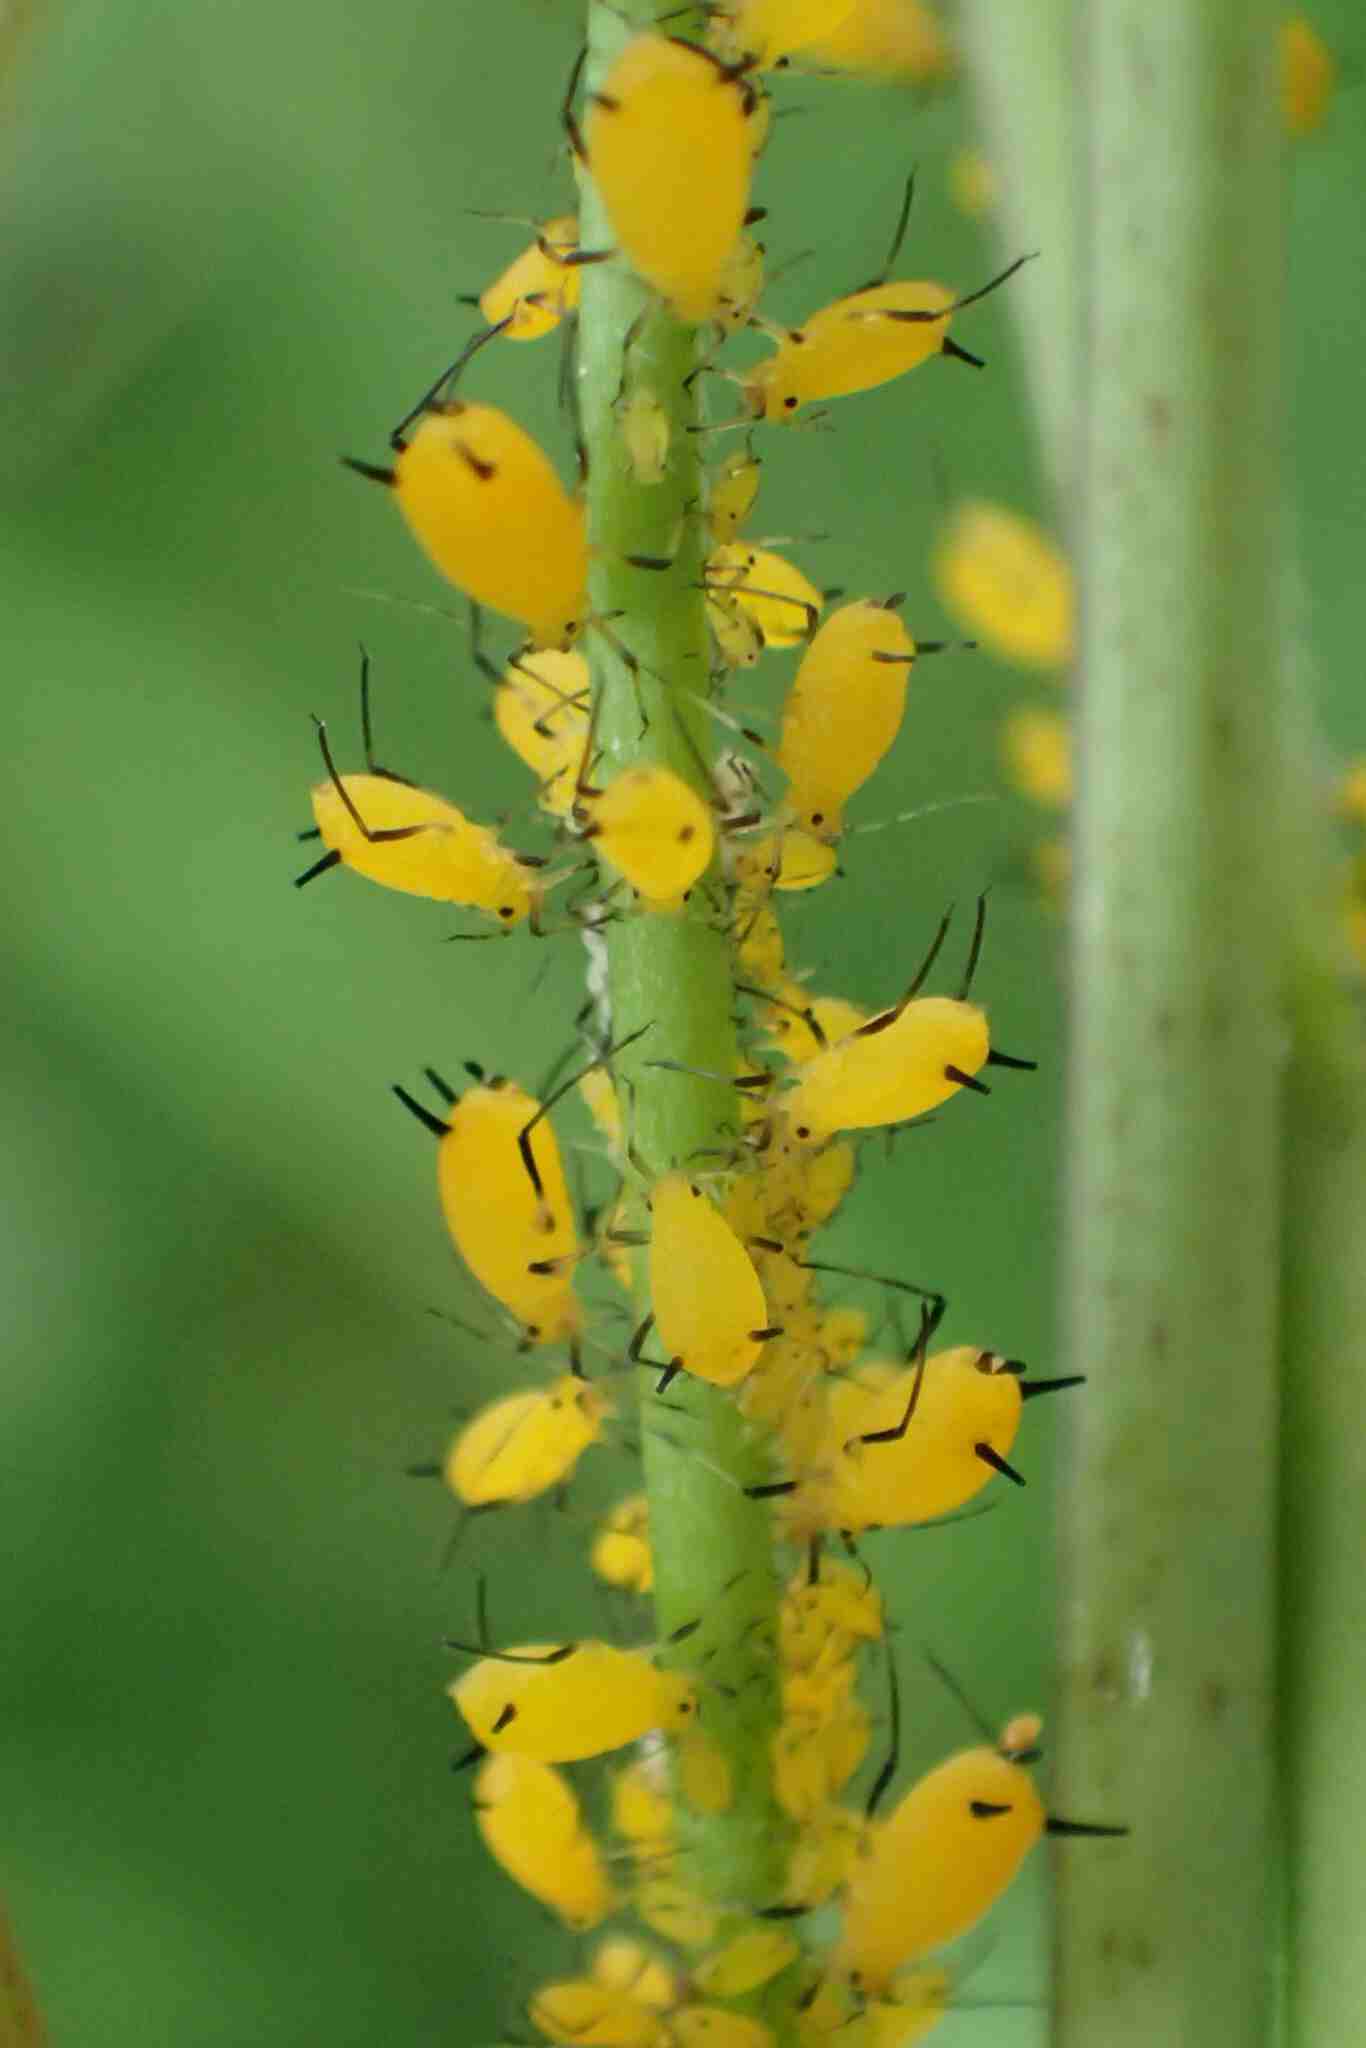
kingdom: Animalia
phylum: Arthropoda
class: Insecta
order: Hemiptera
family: Aphididae
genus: Aphis
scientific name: Aphis nerii
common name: Oleander aphid
